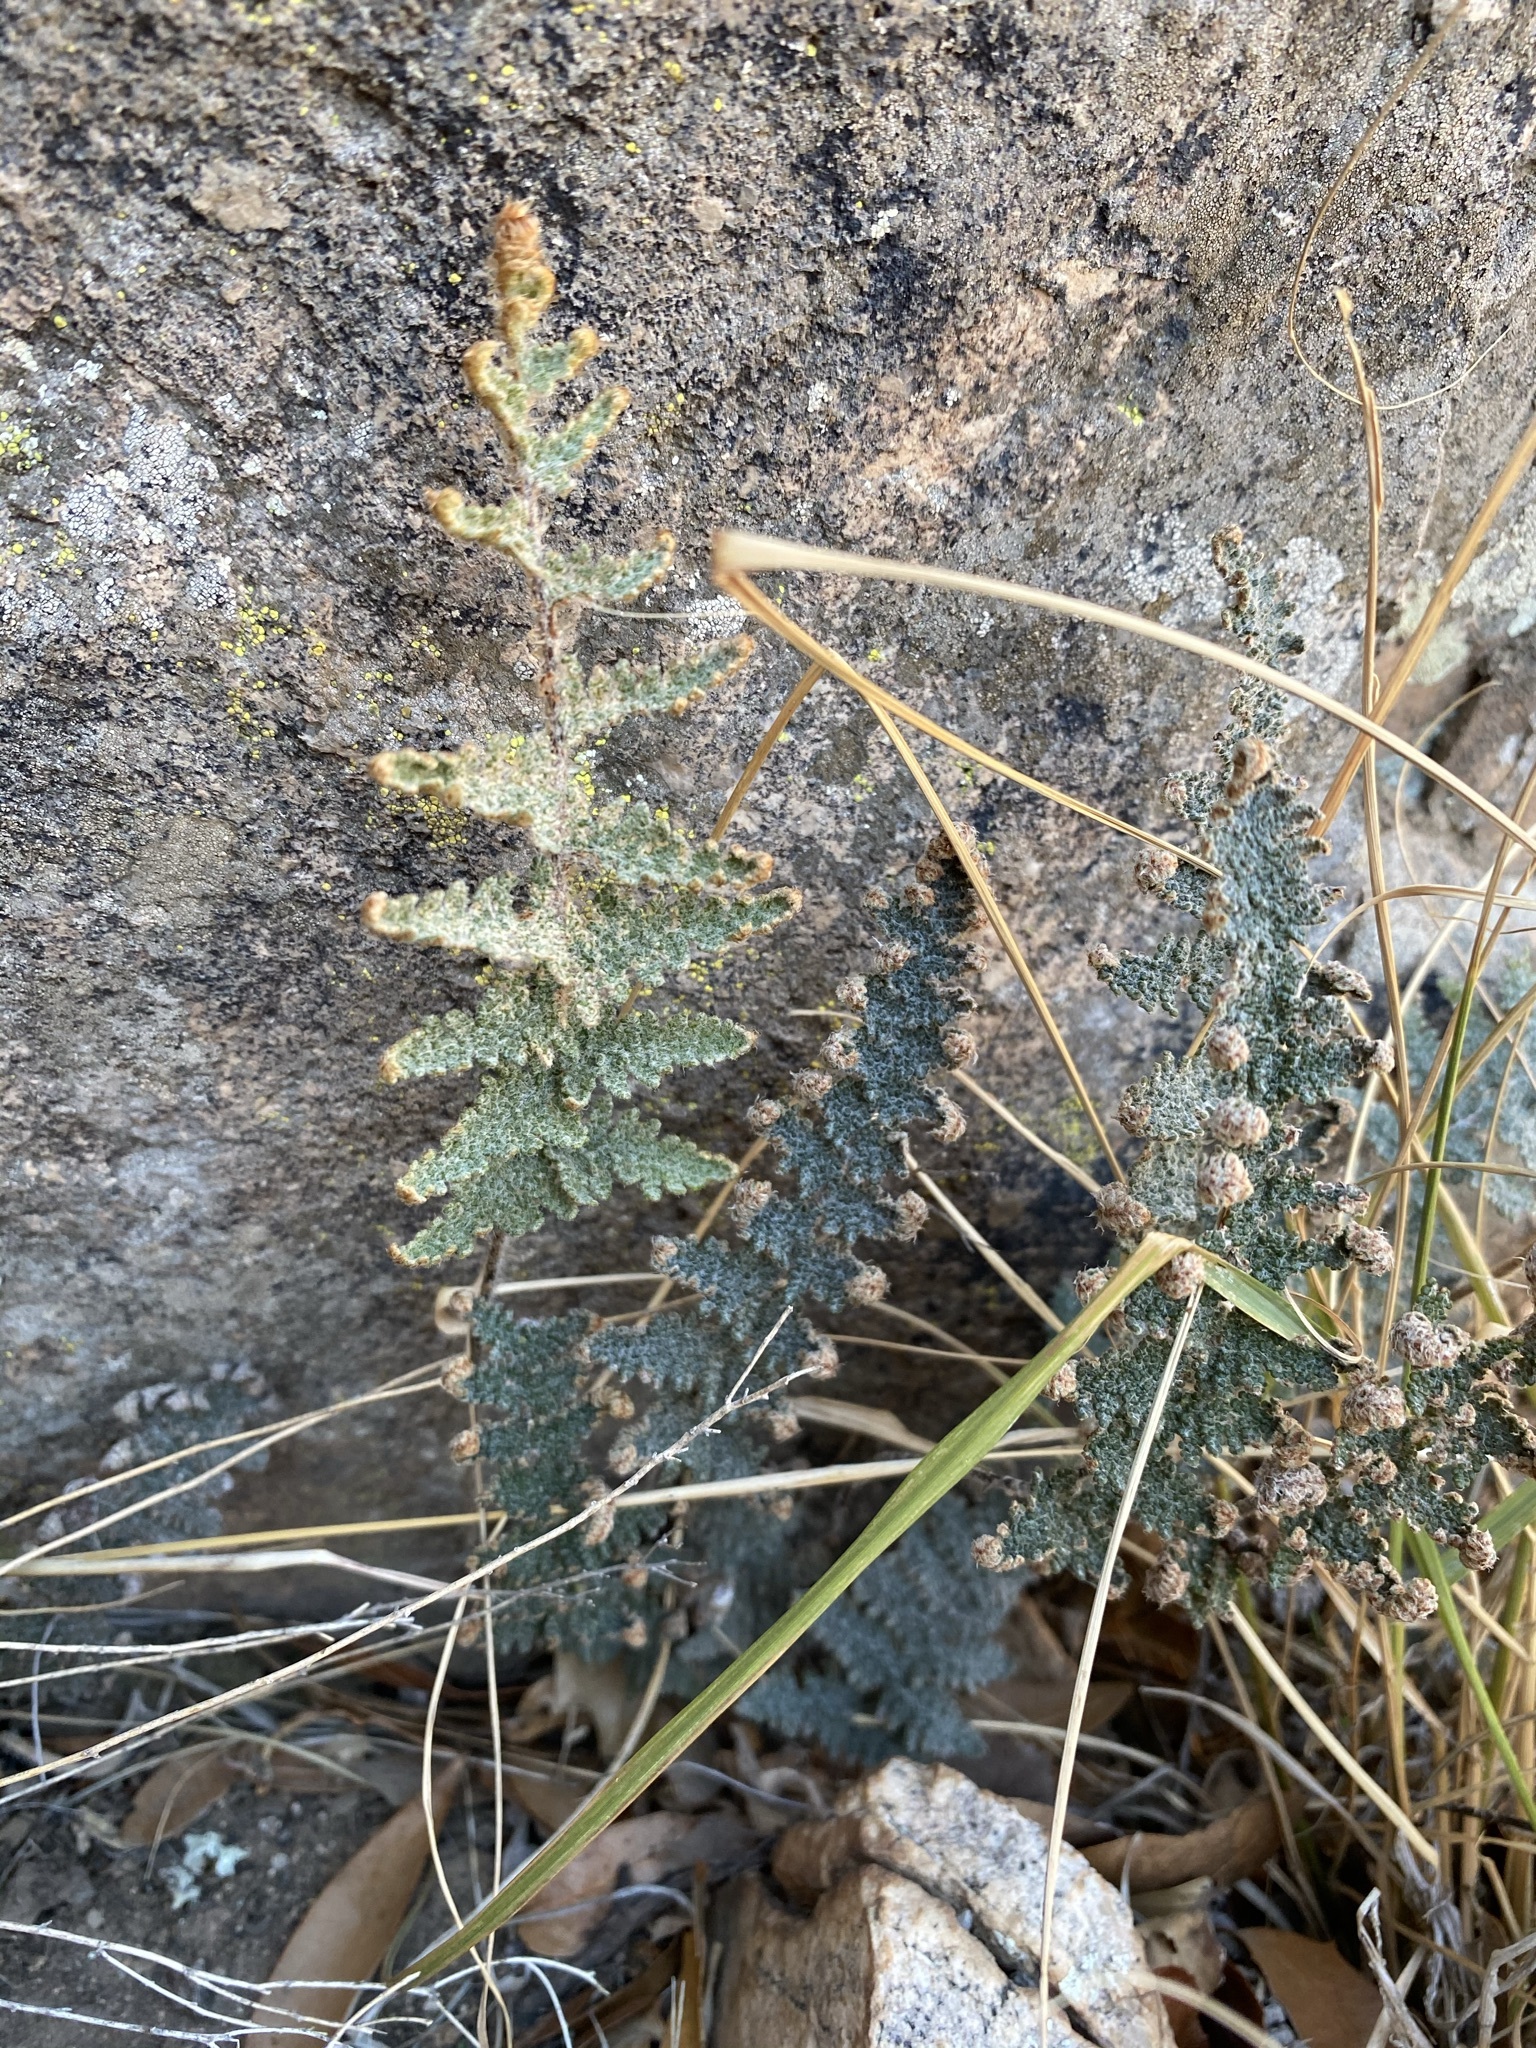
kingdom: Plantae
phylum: Tracheophyta
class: Polypodiopsida
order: Polypodiales
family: Pteridaceae
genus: Myriopteris
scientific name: Myriopteris lindheimeri
